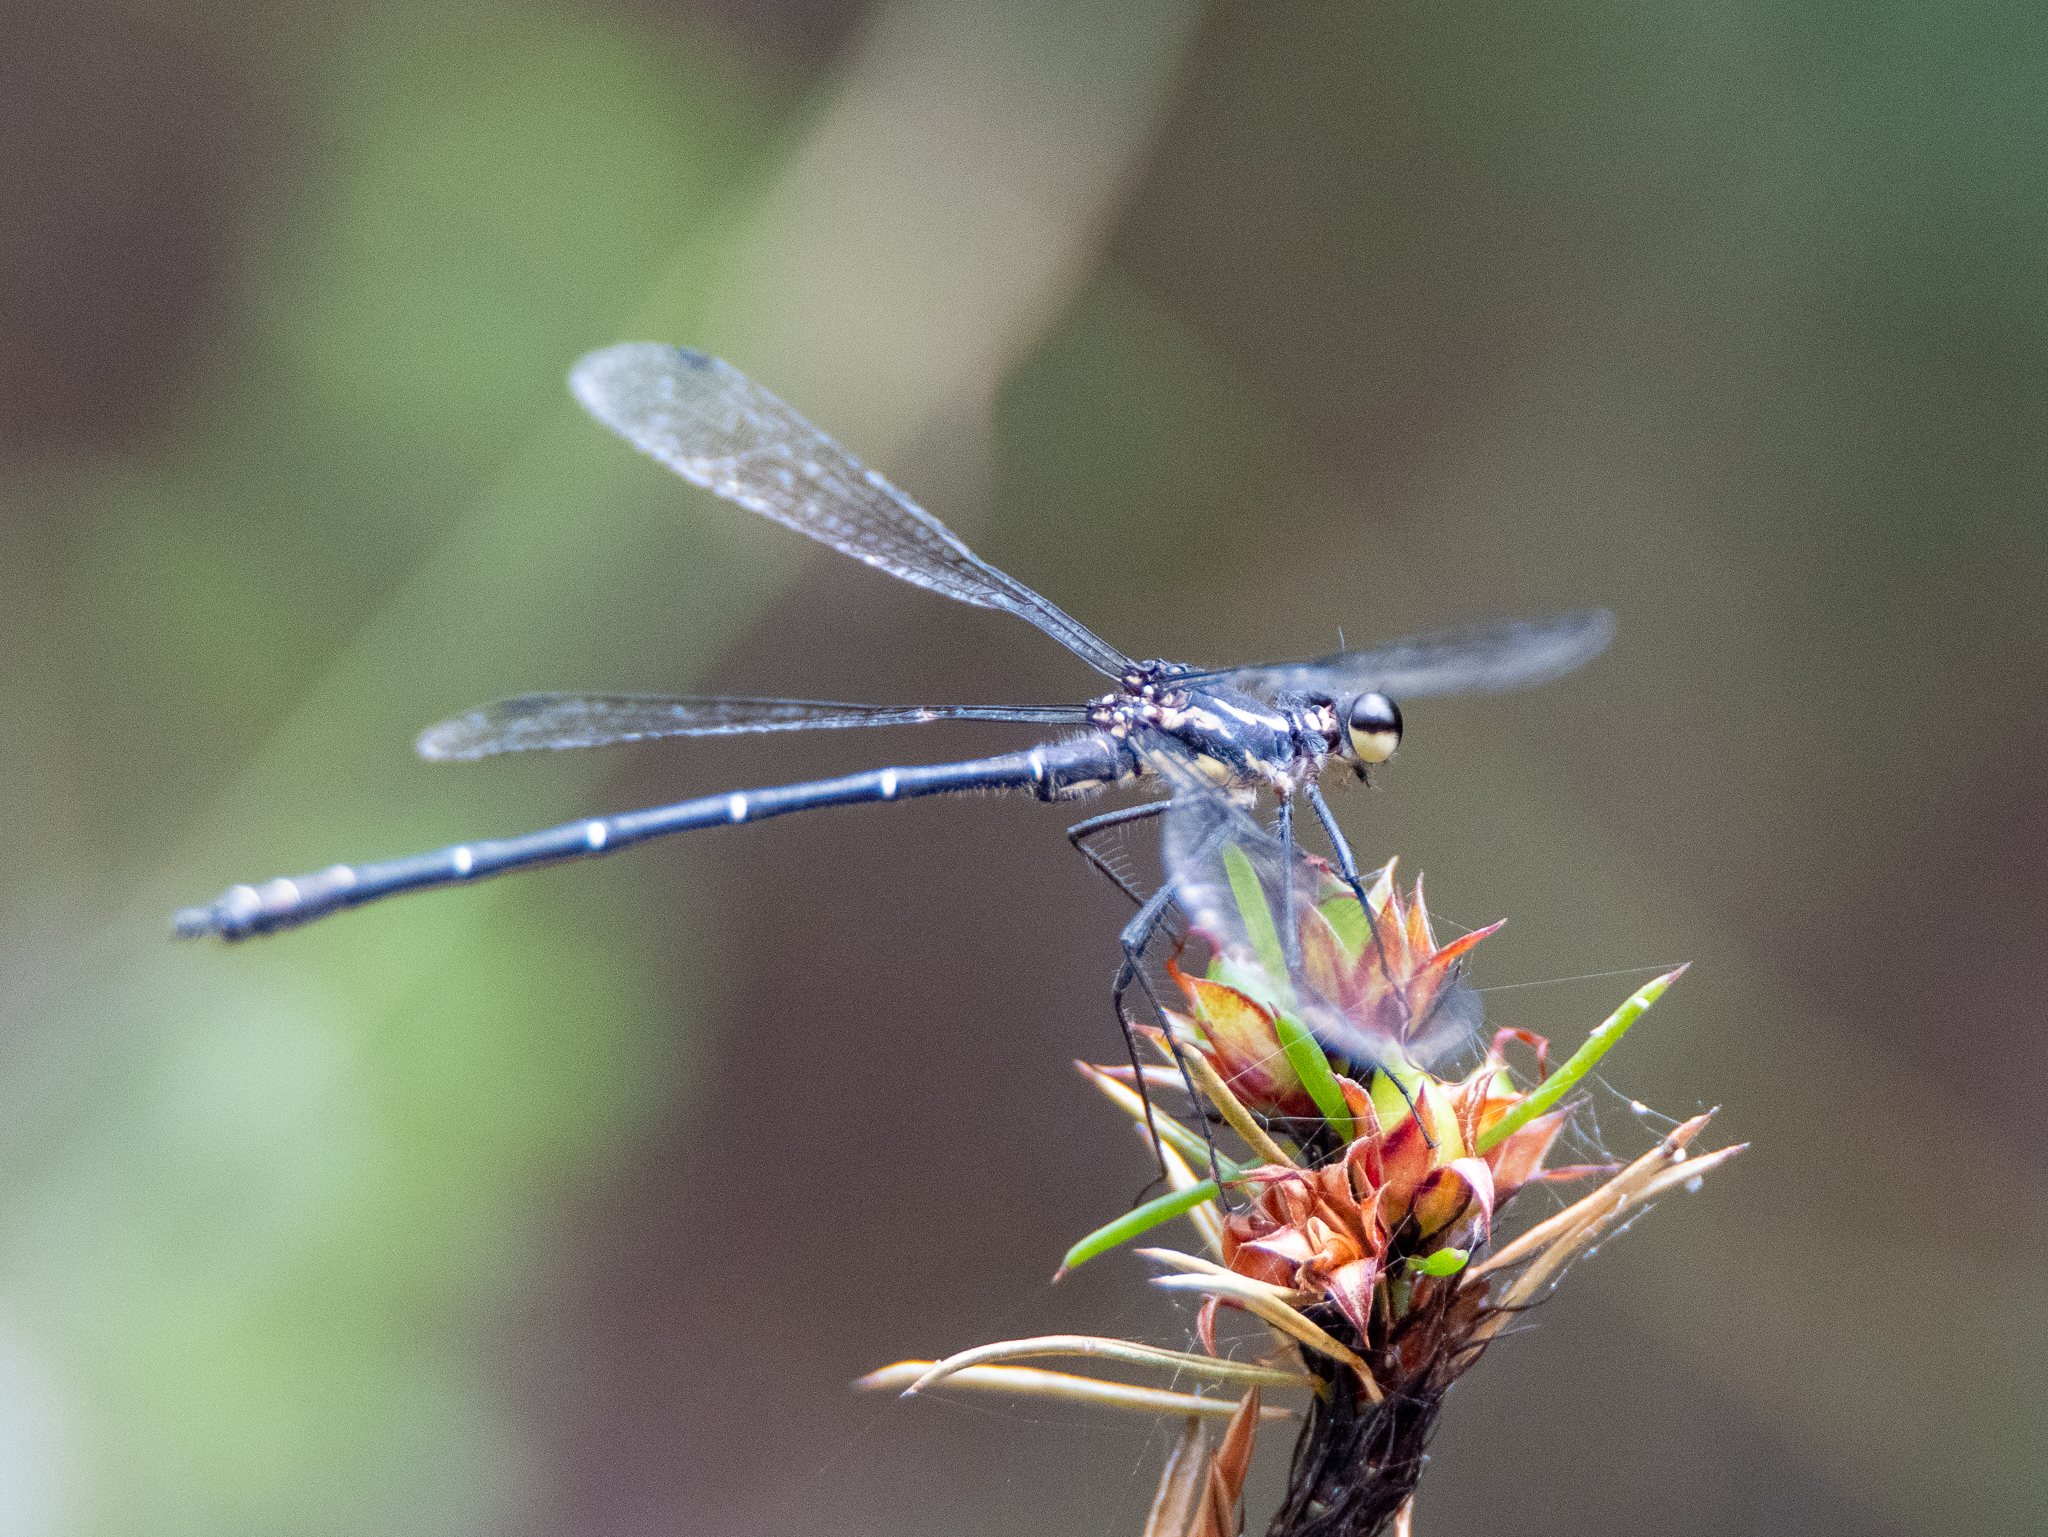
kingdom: Animalia
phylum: Arthropoda
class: Insecta
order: Odonata
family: Argiolestidae
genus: Austroargiolestes
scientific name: Austroargiolestes isabellae
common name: Sydney flatwing
